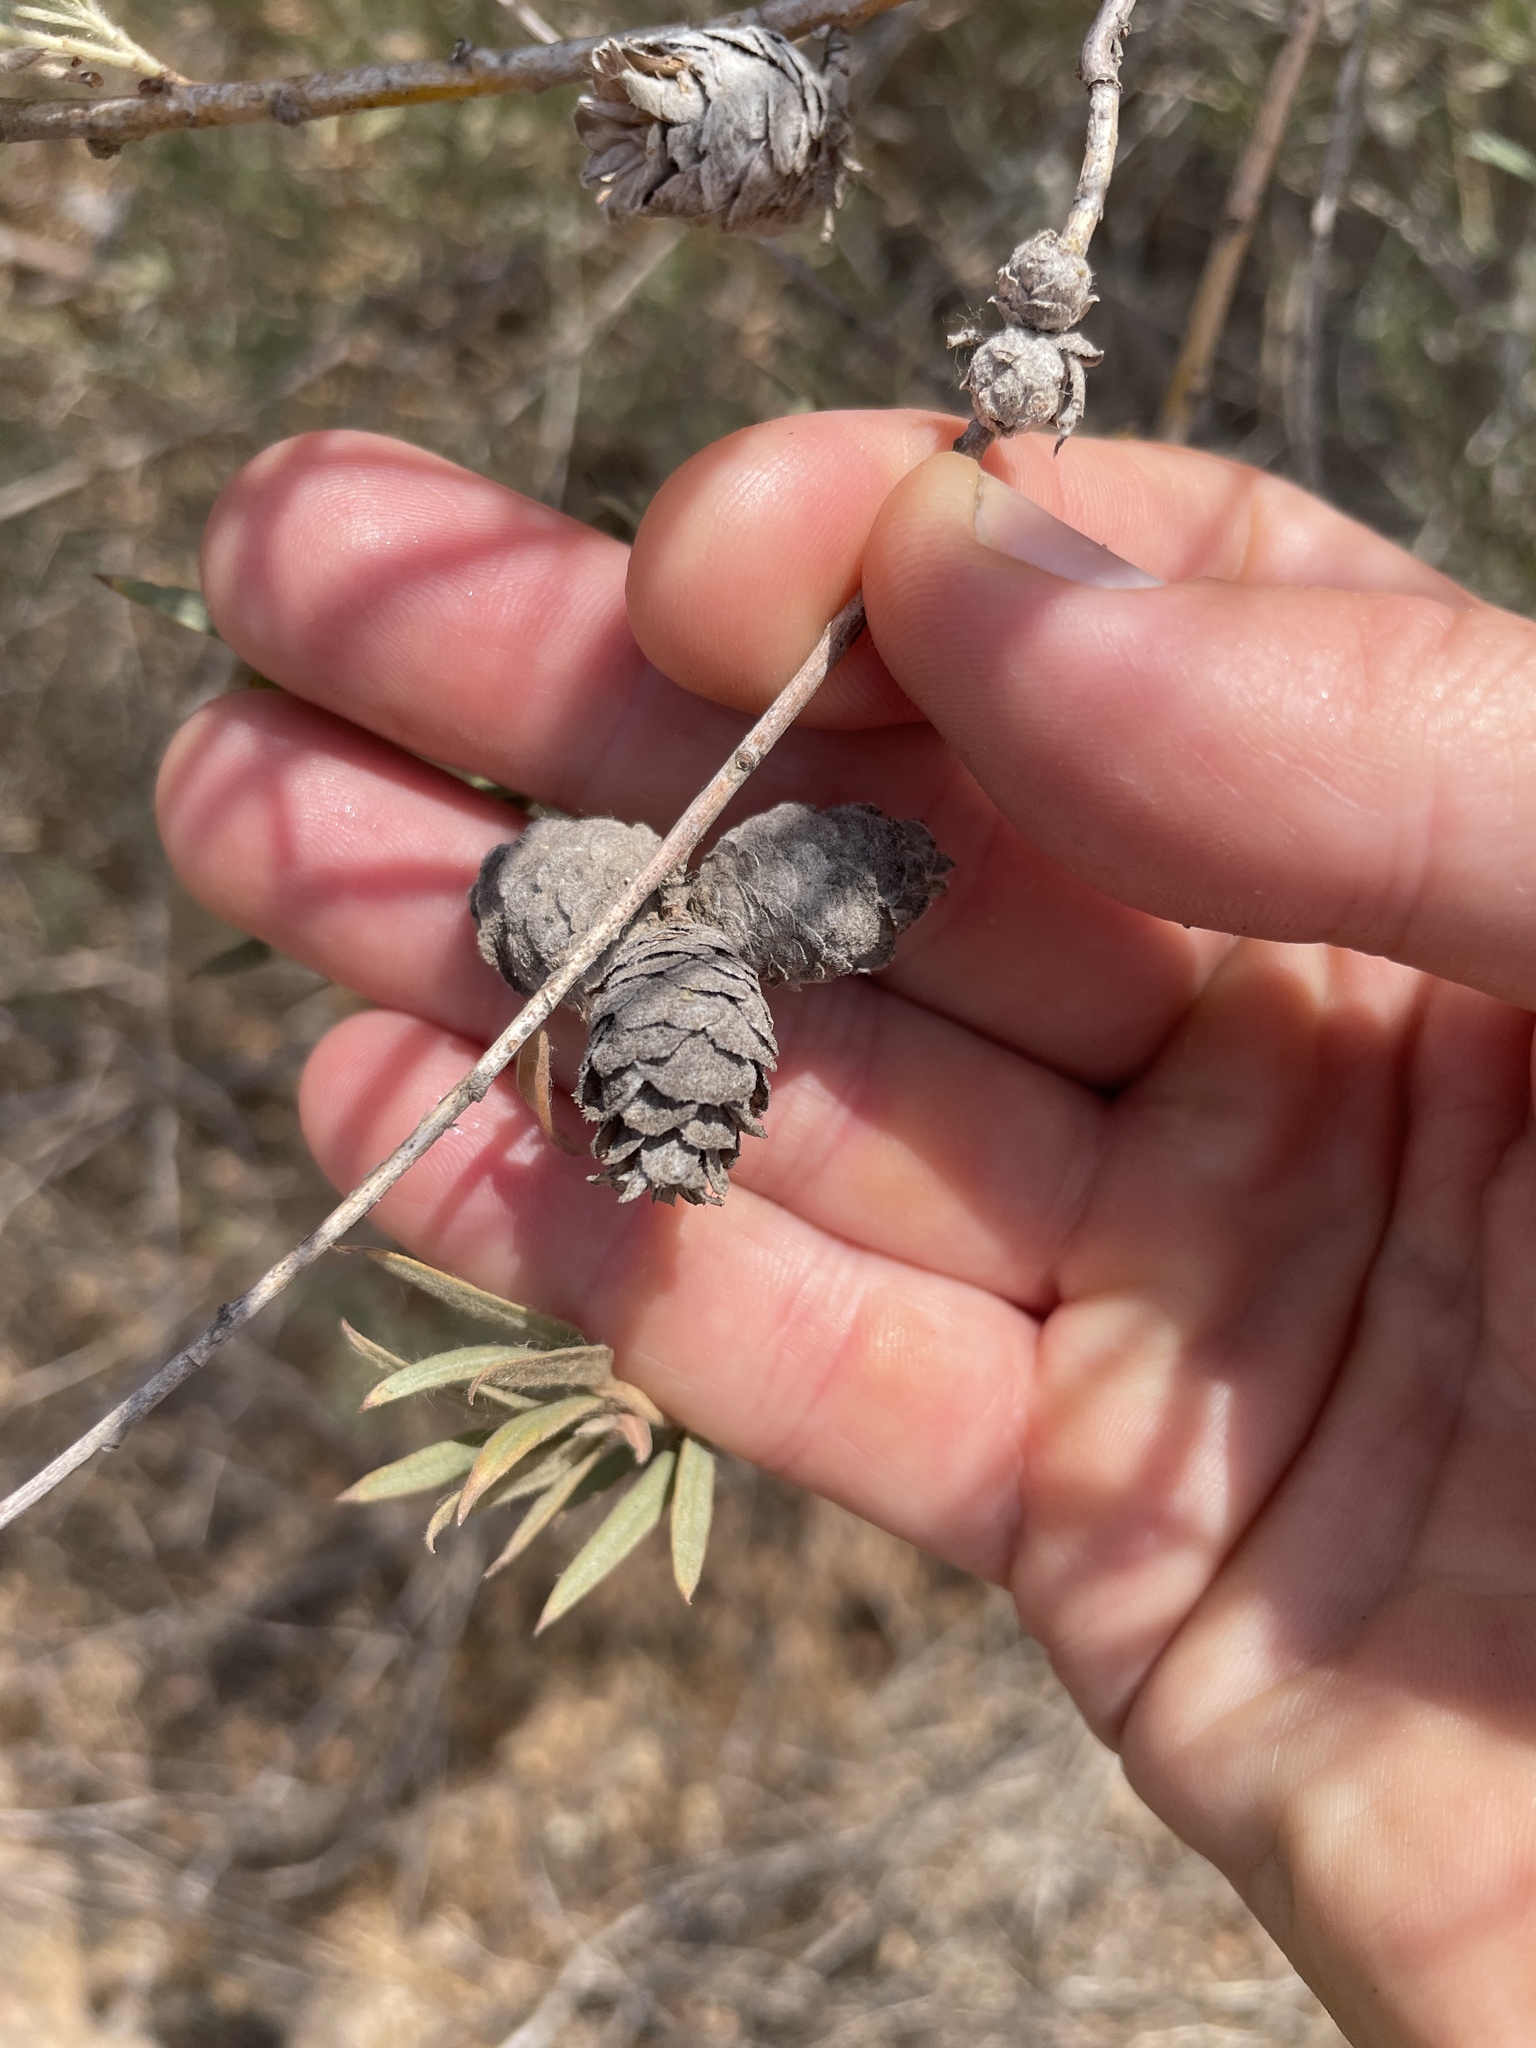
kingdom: Animalia
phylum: Arthropoda
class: Insecta
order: Diptera
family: Cecidomyiidae
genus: Rabdophaga
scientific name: Rabdophaga strobiloides
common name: Willow pinecone gall midge
